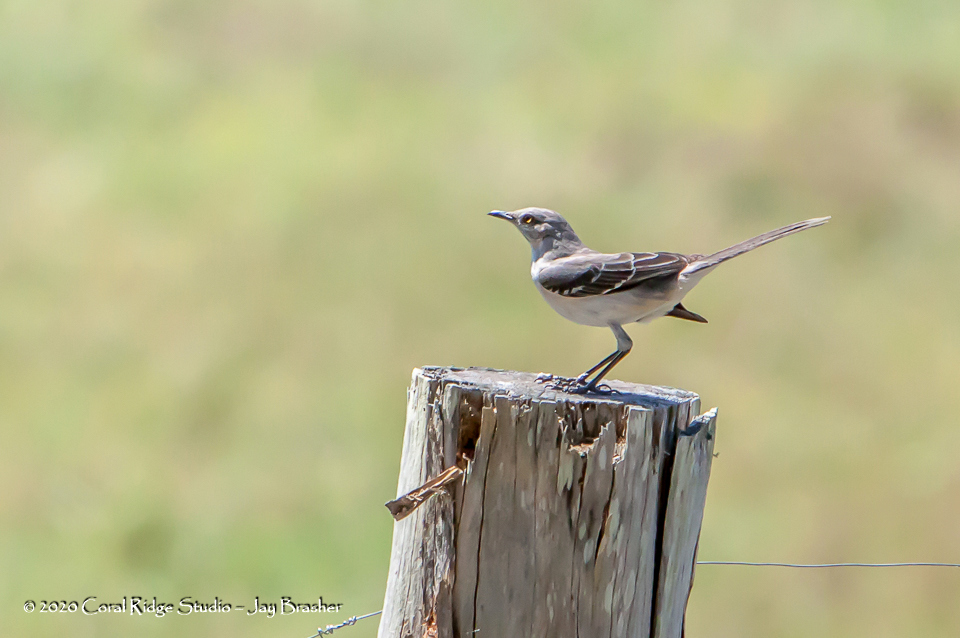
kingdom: Animalia
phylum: Chordata
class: Aves
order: Passeriformes
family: Mimidae
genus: Mimus
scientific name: Mimus polyglottos
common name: Northern mockingbird
